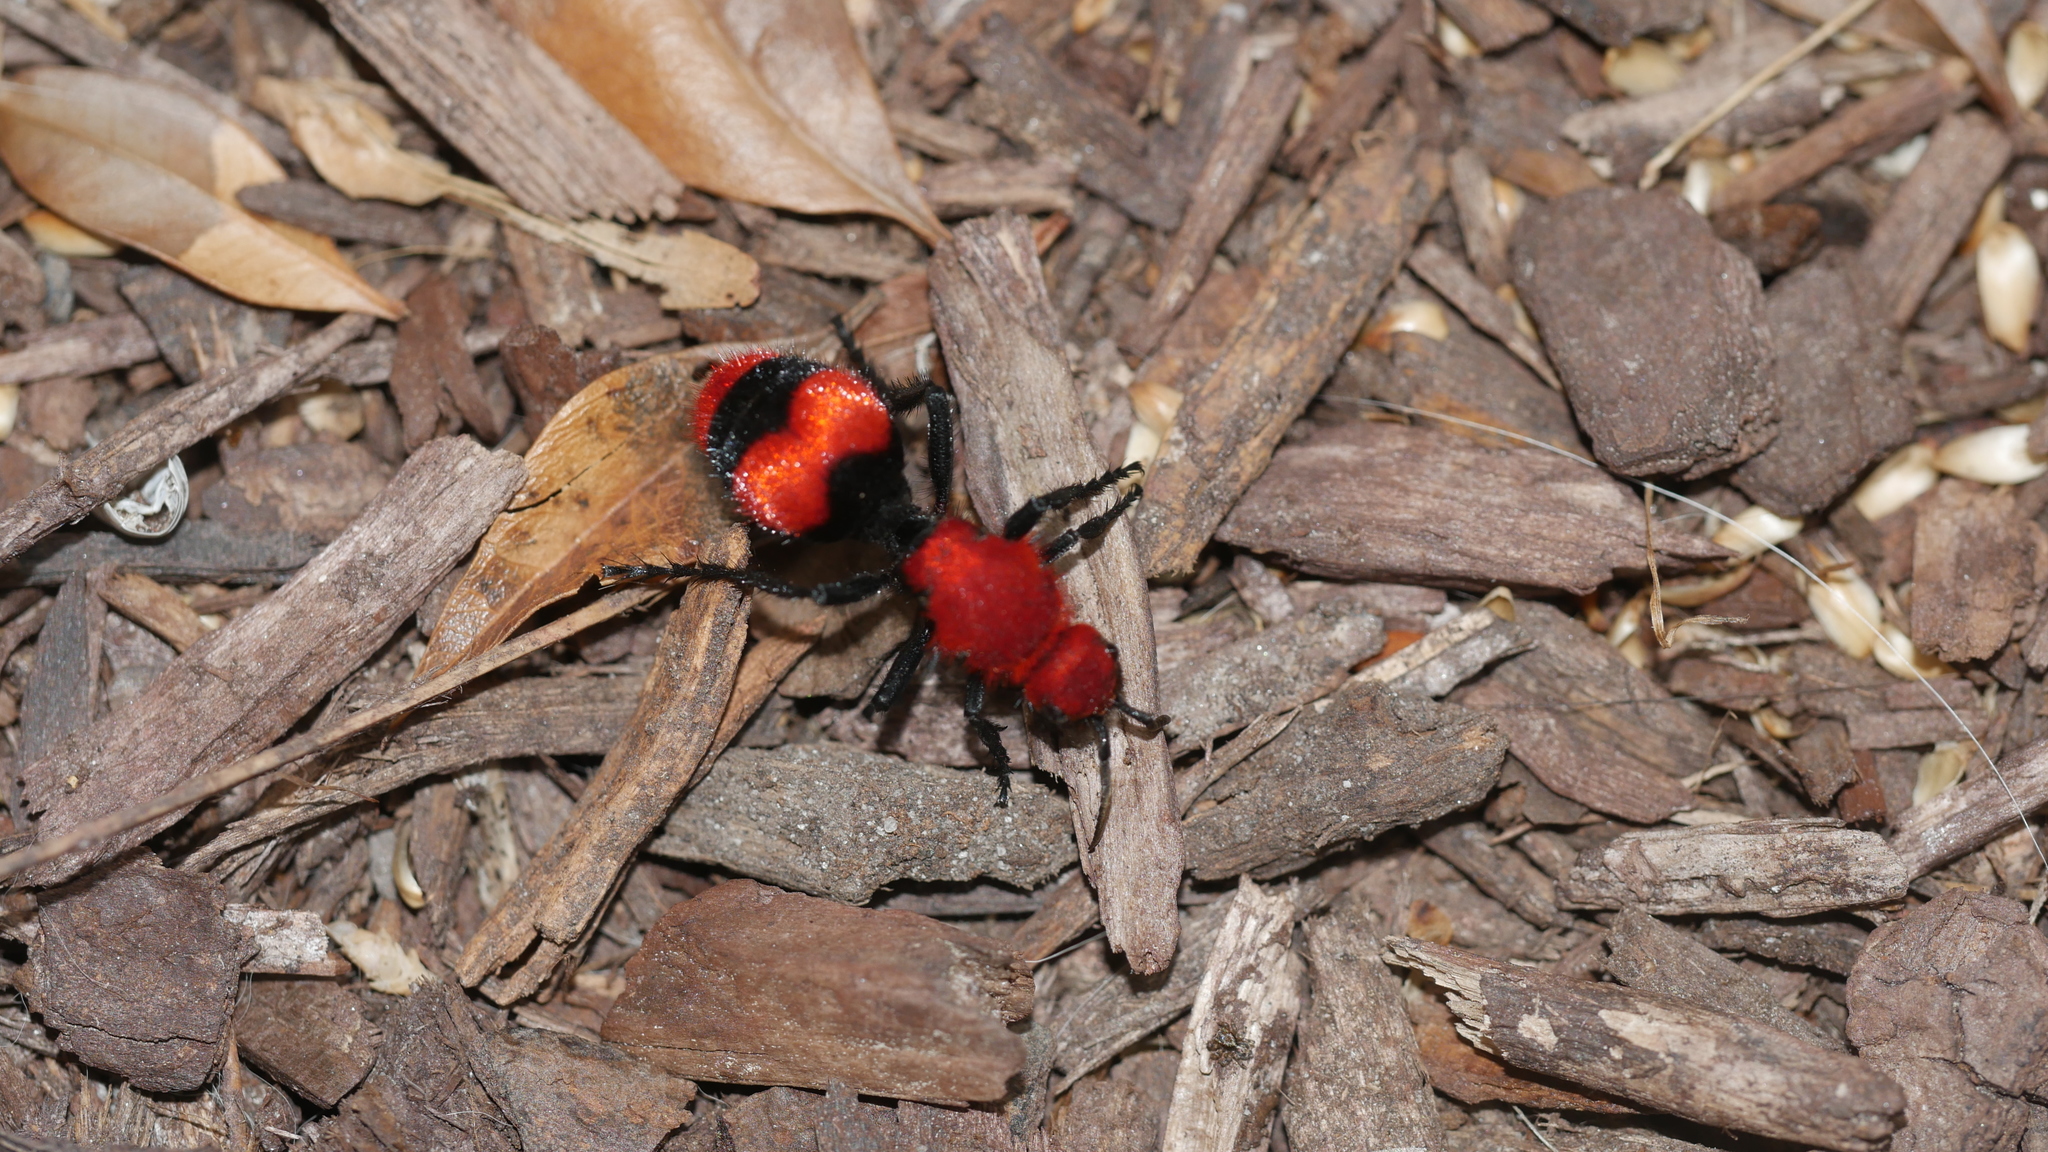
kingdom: Animalia
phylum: Arthropoda
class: Insecta
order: Hymenoptera
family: Mutillidae
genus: Dasymutilla
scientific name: Dasymutilla occidentalis
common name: Common eastern velvet ant
